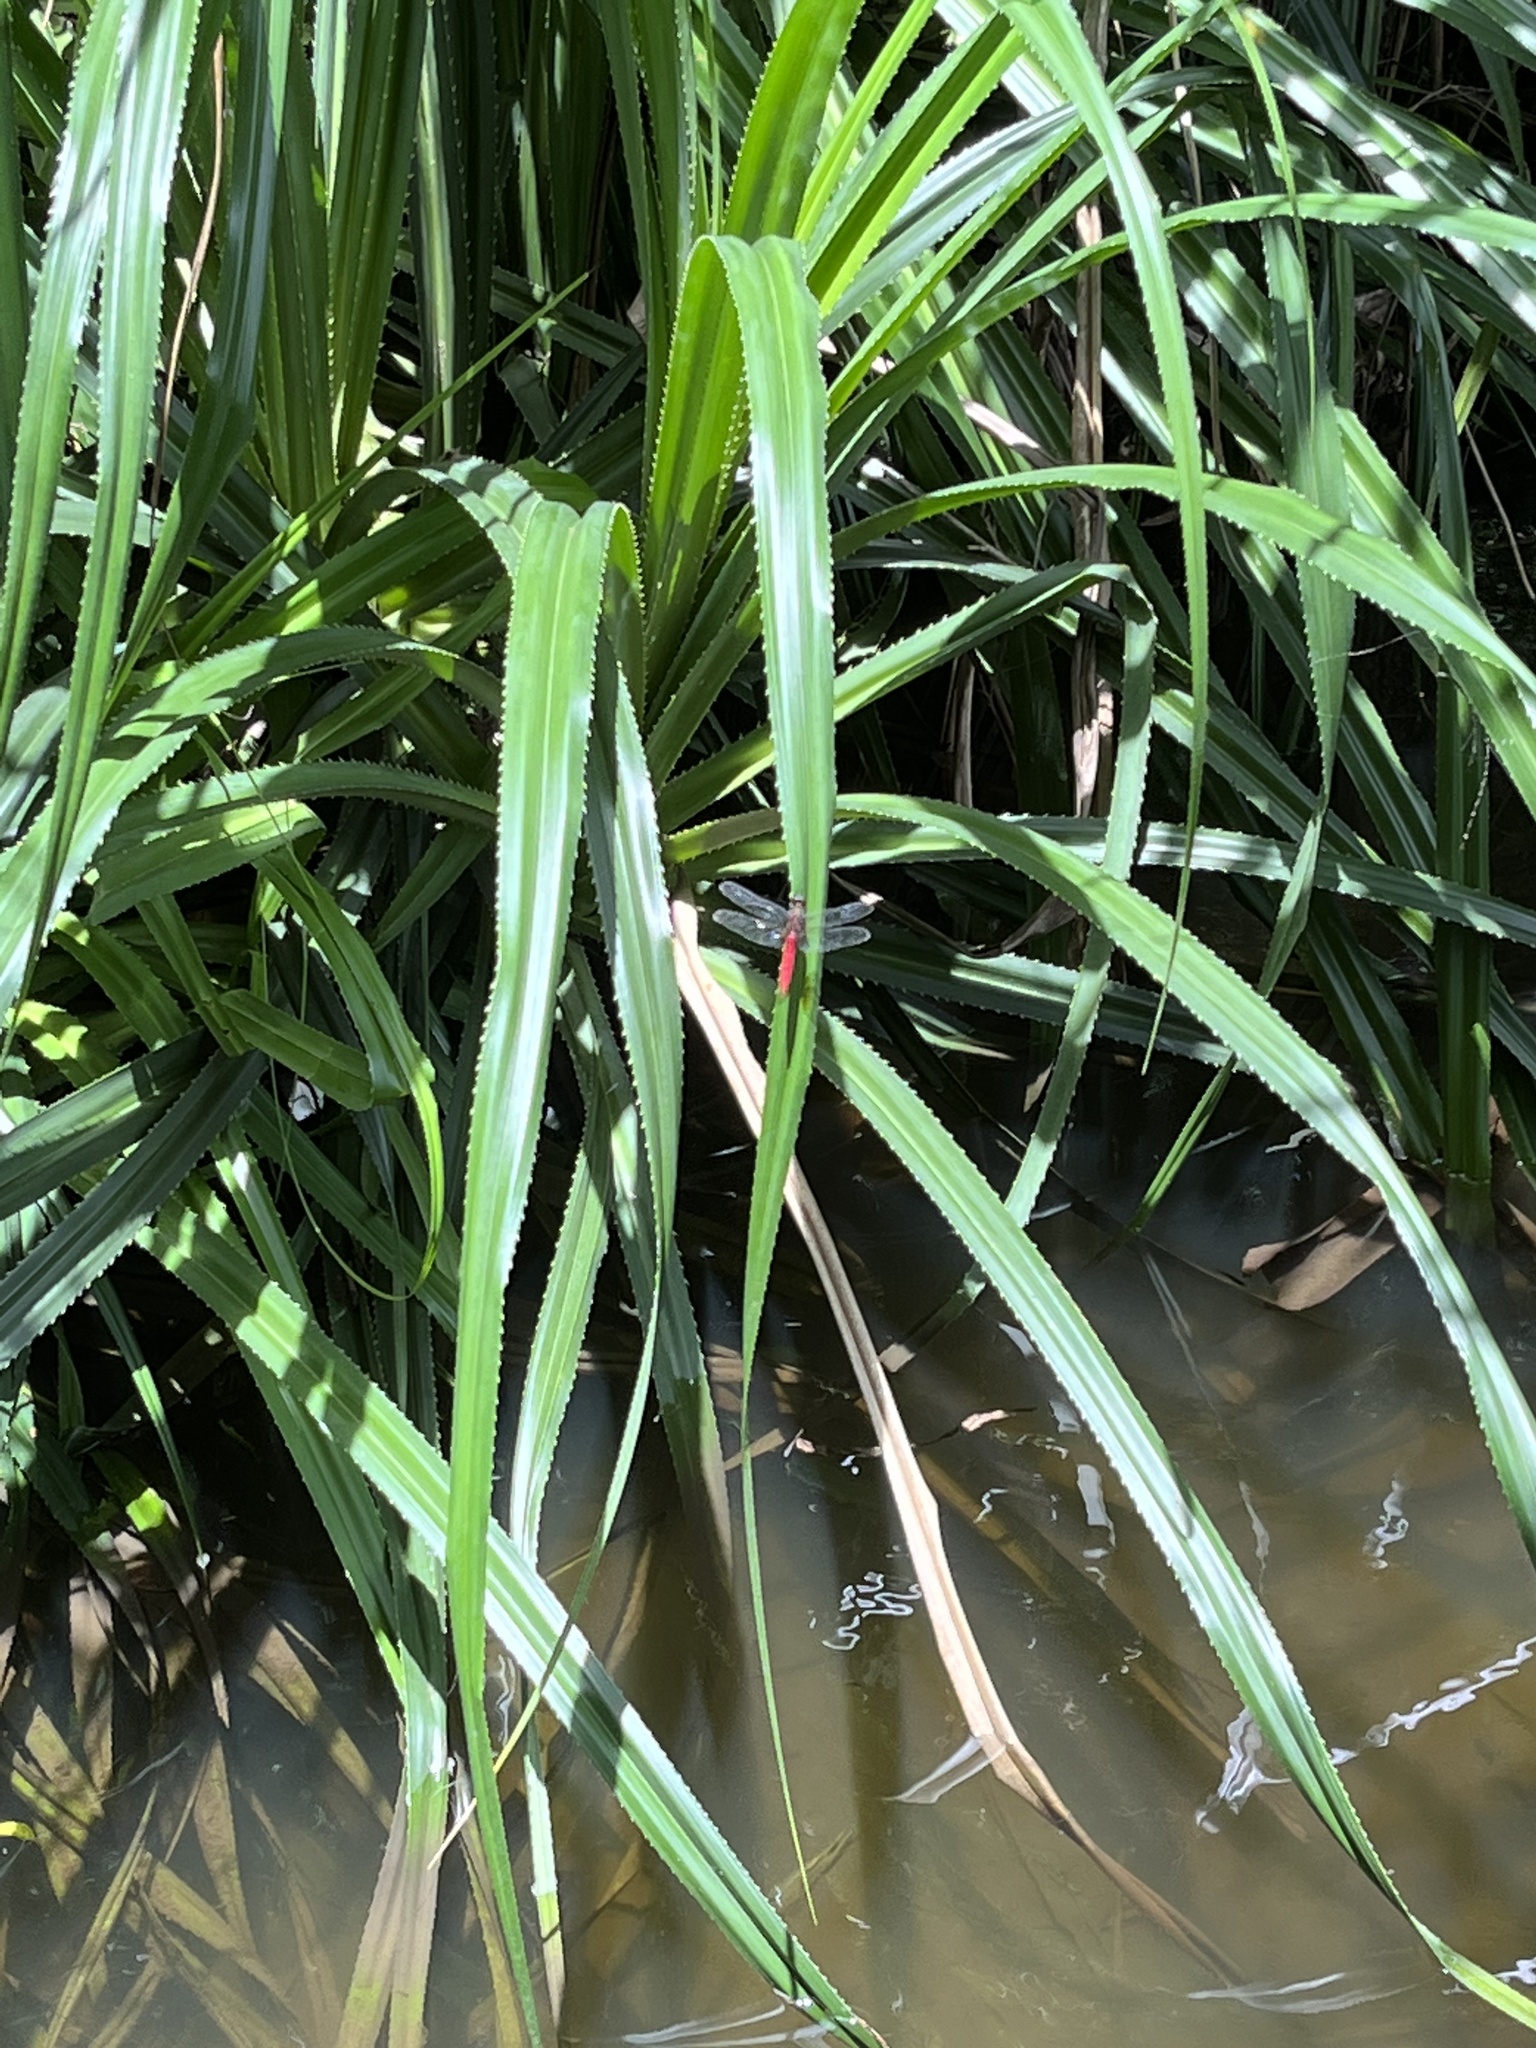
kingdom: Animalia
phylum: Arthropoda
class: Insecta
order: Odonata
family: Libellulidae
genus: Orthetrum
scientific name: Orthetrum chrysis
